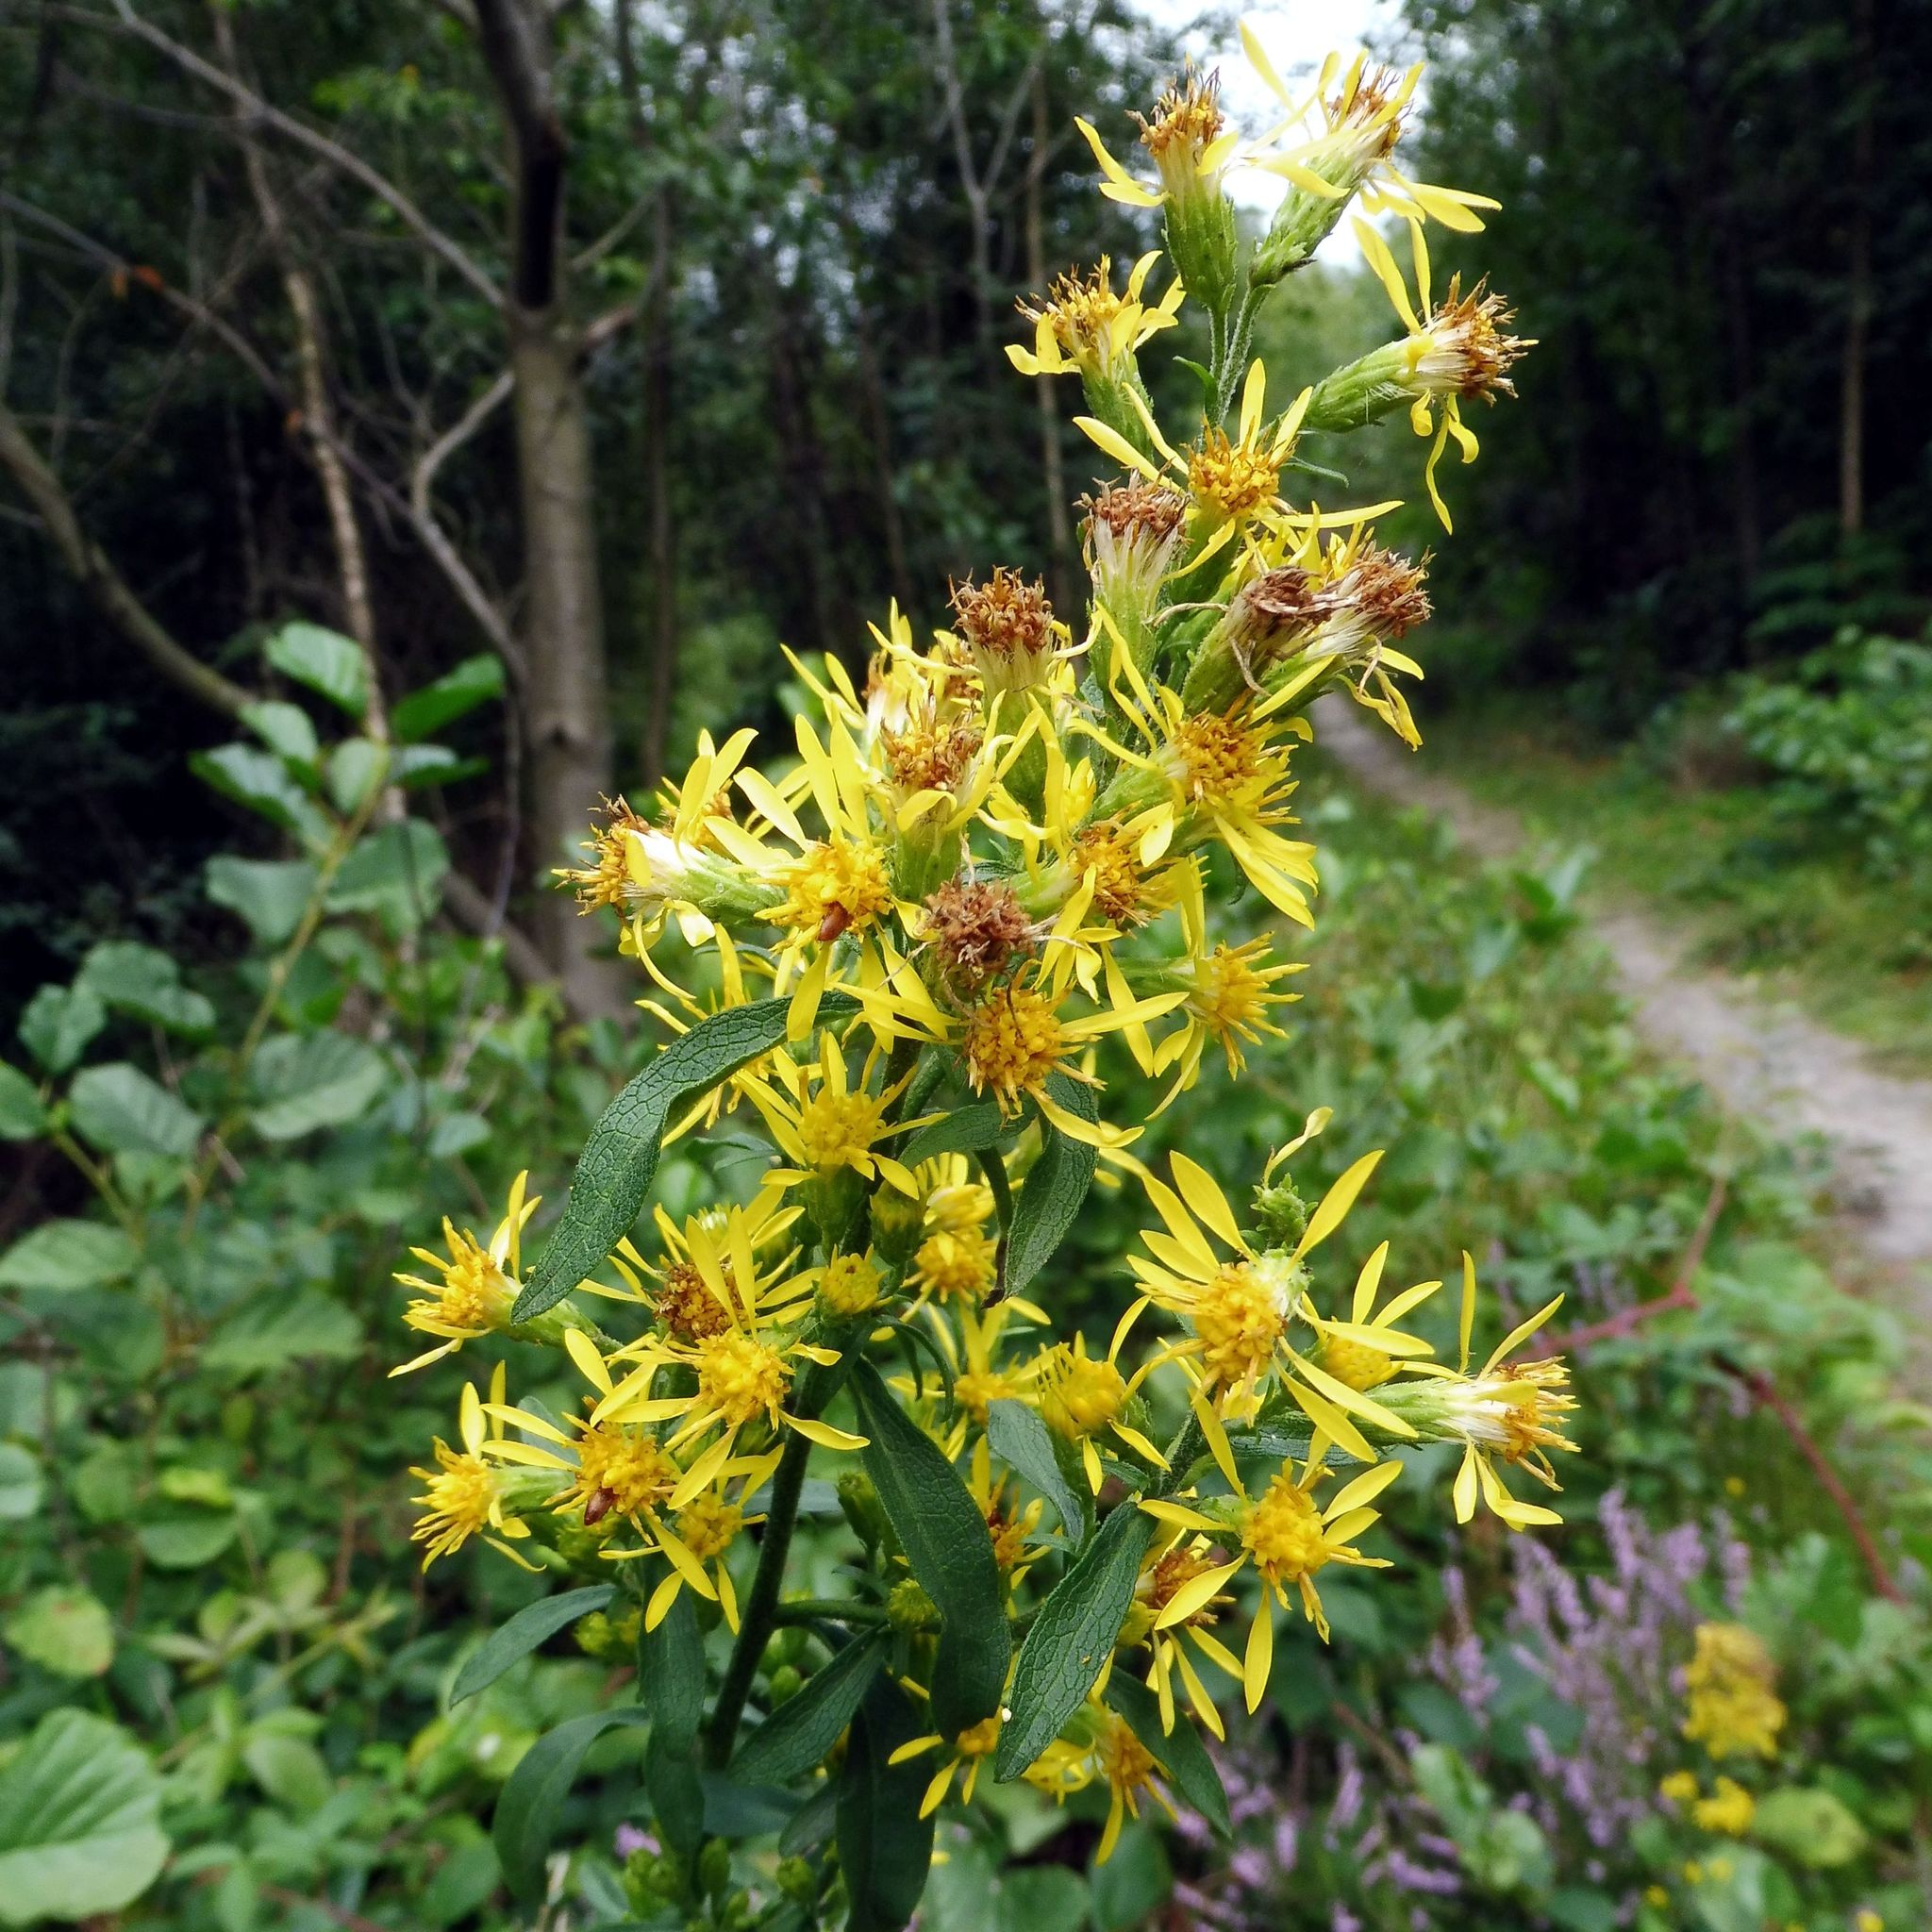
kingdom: Plantae
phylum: Tracheophyta
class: Magnoliopsida
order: Asterales
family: Asteraceae
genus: Solidago
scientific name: Solidago virgaurea
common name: Goldenrod
